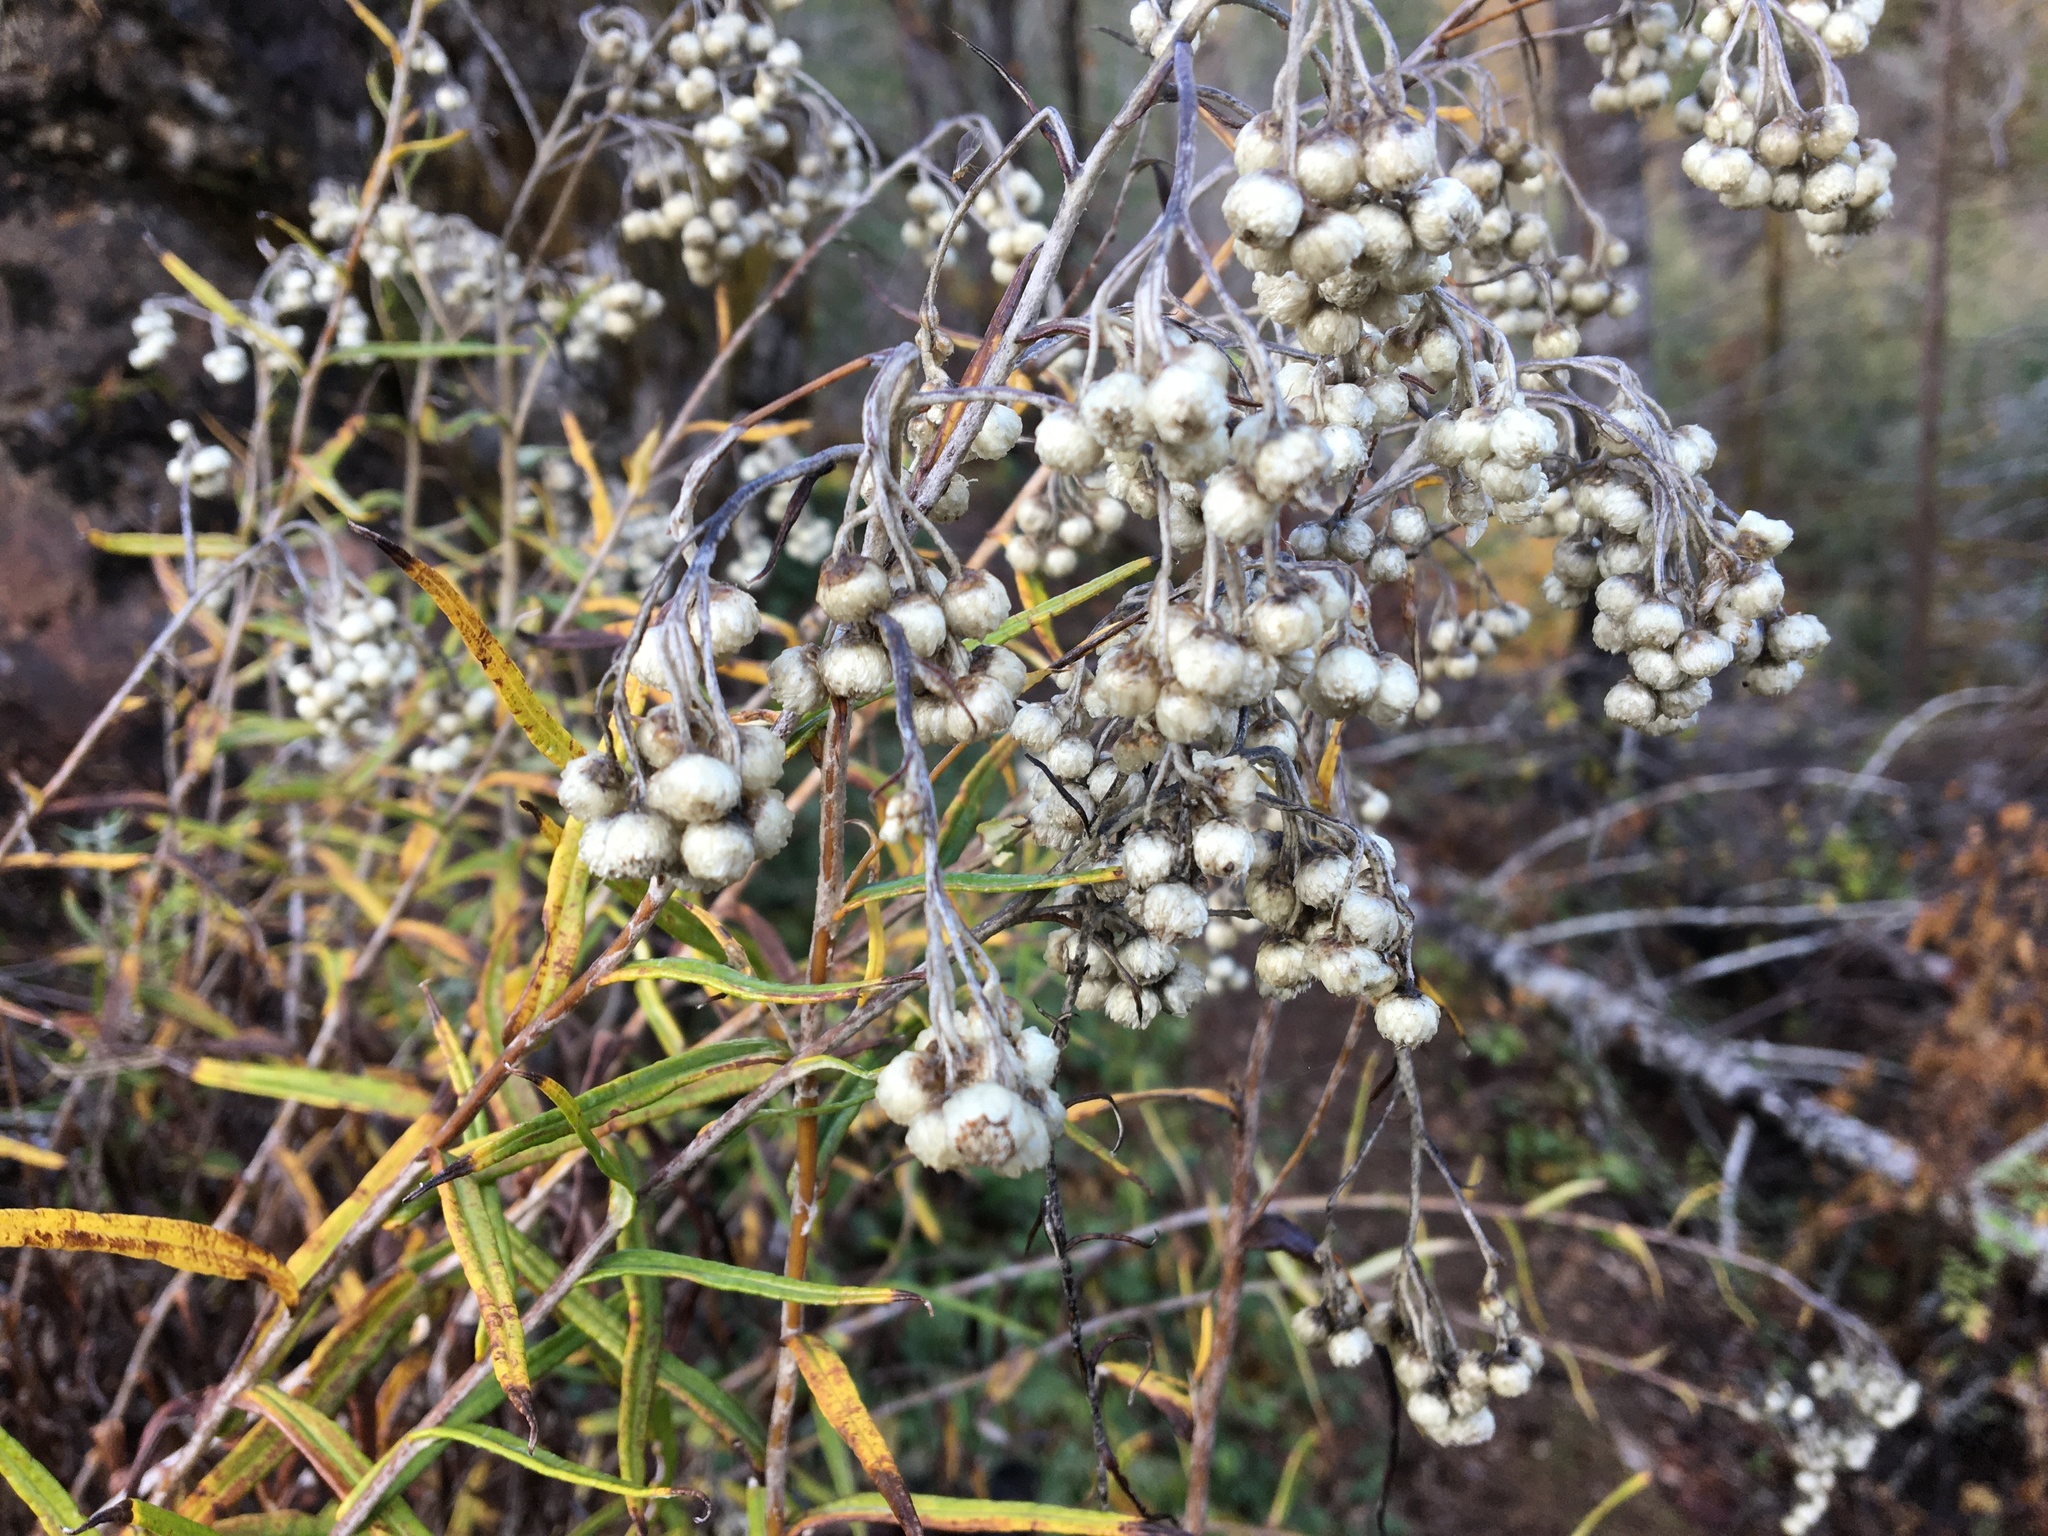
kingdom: Plantae
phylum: Tracheophyta
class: Magnoliopsida
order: Asterales
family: Asteraceae
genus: Anaphalis
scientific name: Anaphalis margaritacea
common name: Pearly everlasting
